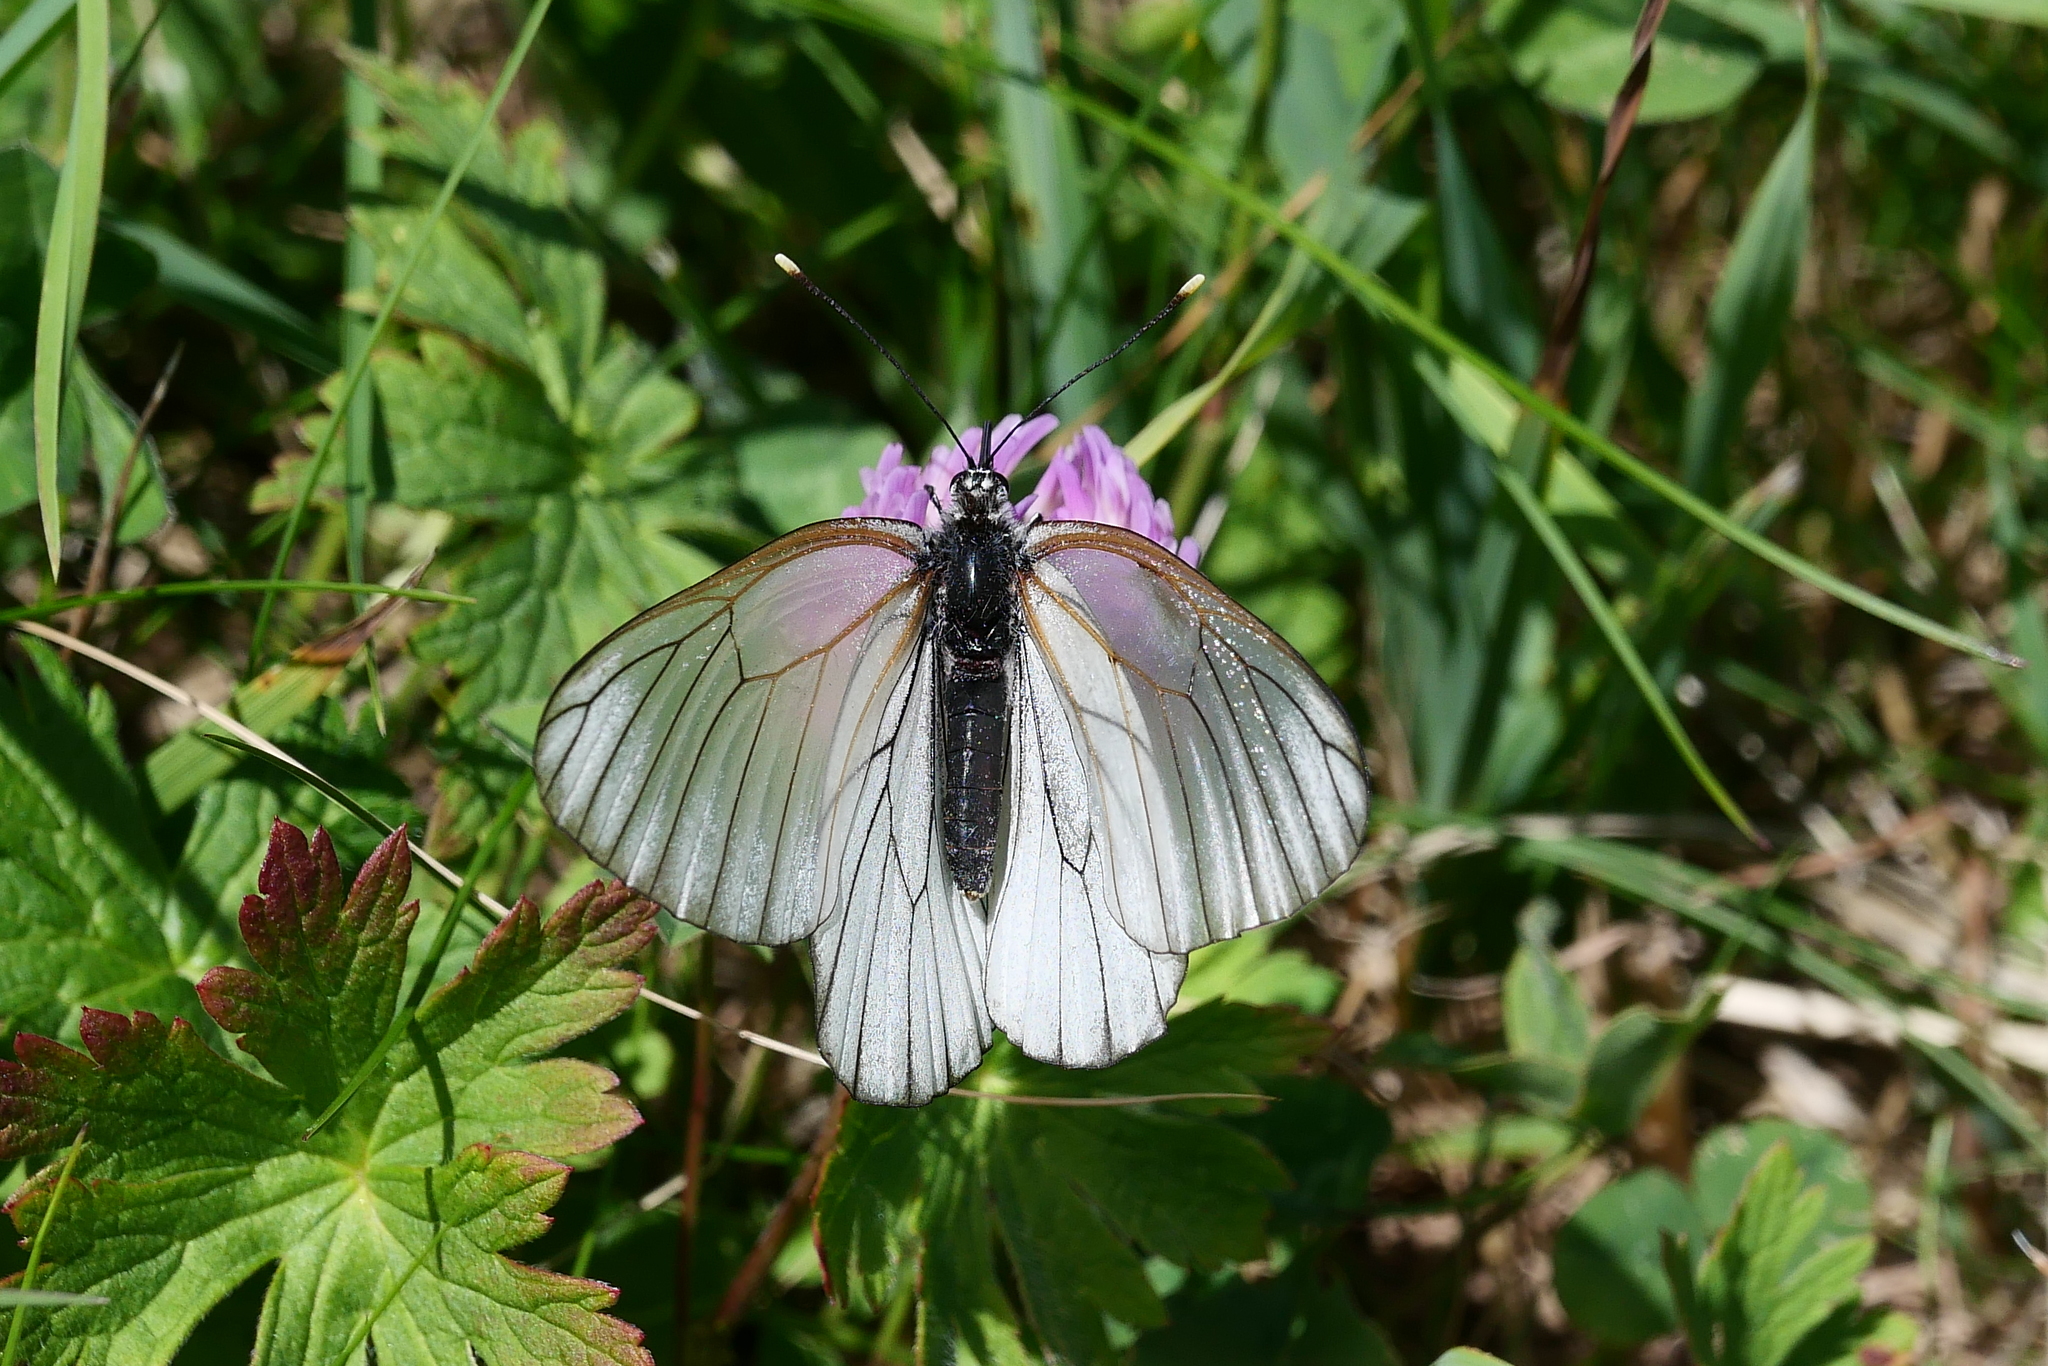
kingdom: Animalia
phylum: Arthropoda
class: Insecta
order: Lepidoptera
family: Pieridae
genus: Aporia
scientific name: Aporia crataegi
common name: Black-veined white
